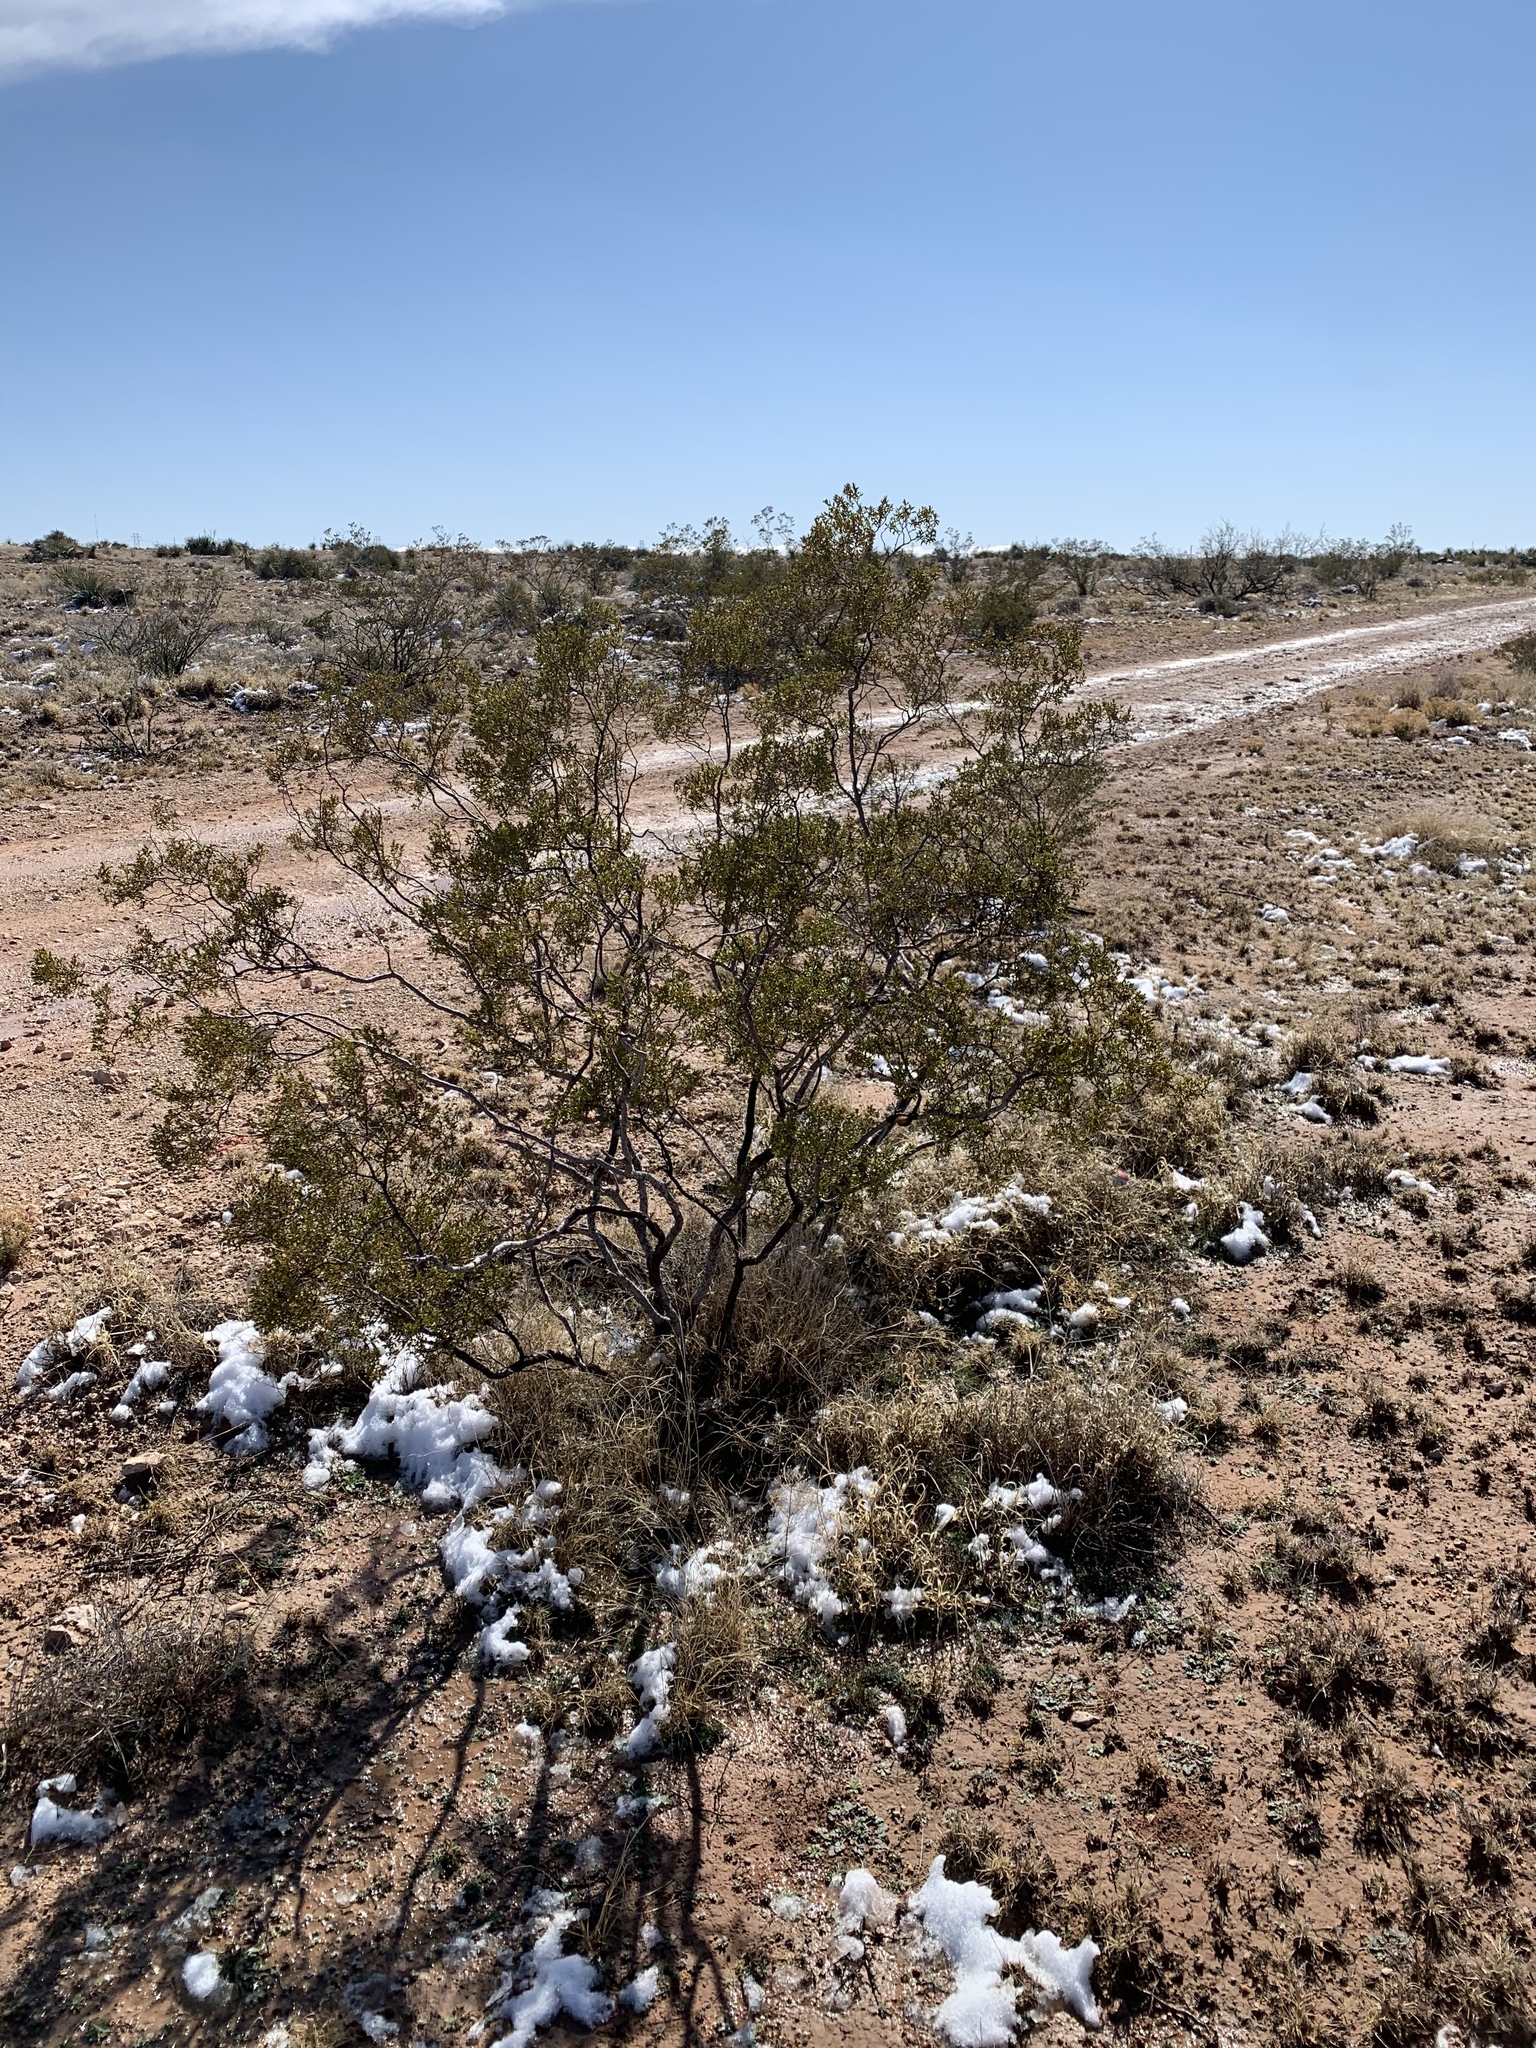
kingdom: Plantae
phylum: Tracheophyta
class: Magnoliopsida
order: Zygophyllales
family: Zygophyllaceae
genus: Larrea
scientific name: Larrea tridentata
